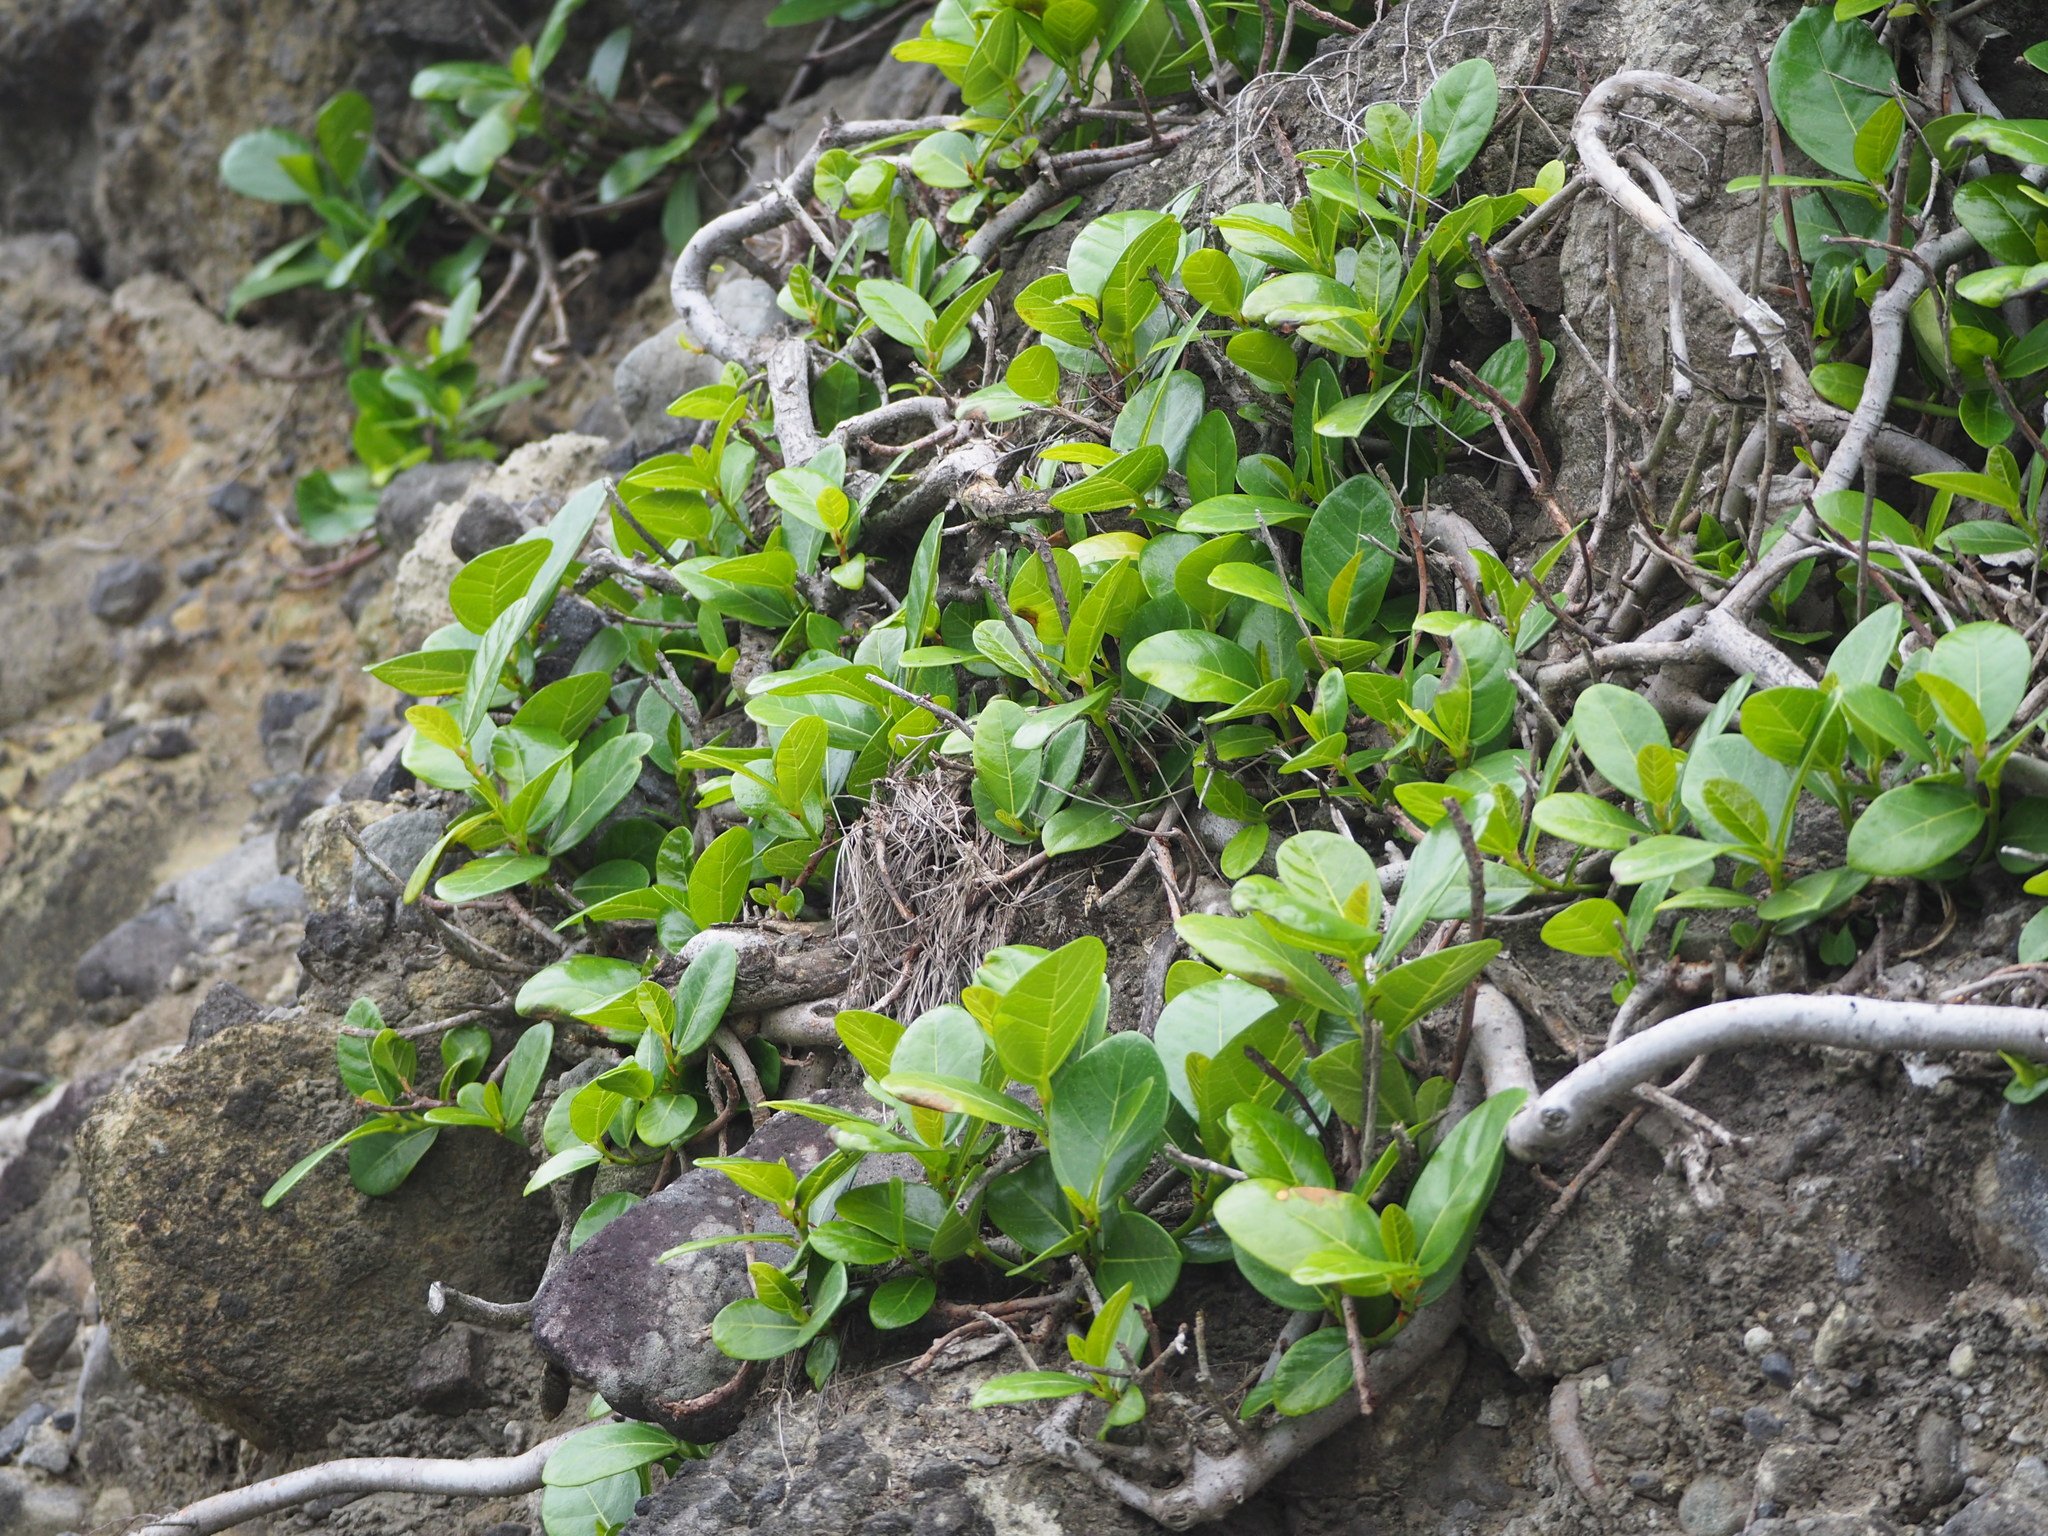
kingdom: Plantae
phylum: Tracheophyta
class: Magnoliopsida
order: Rosales
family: Moraceae
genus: Ficus
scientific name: Ficus pedunculosa
